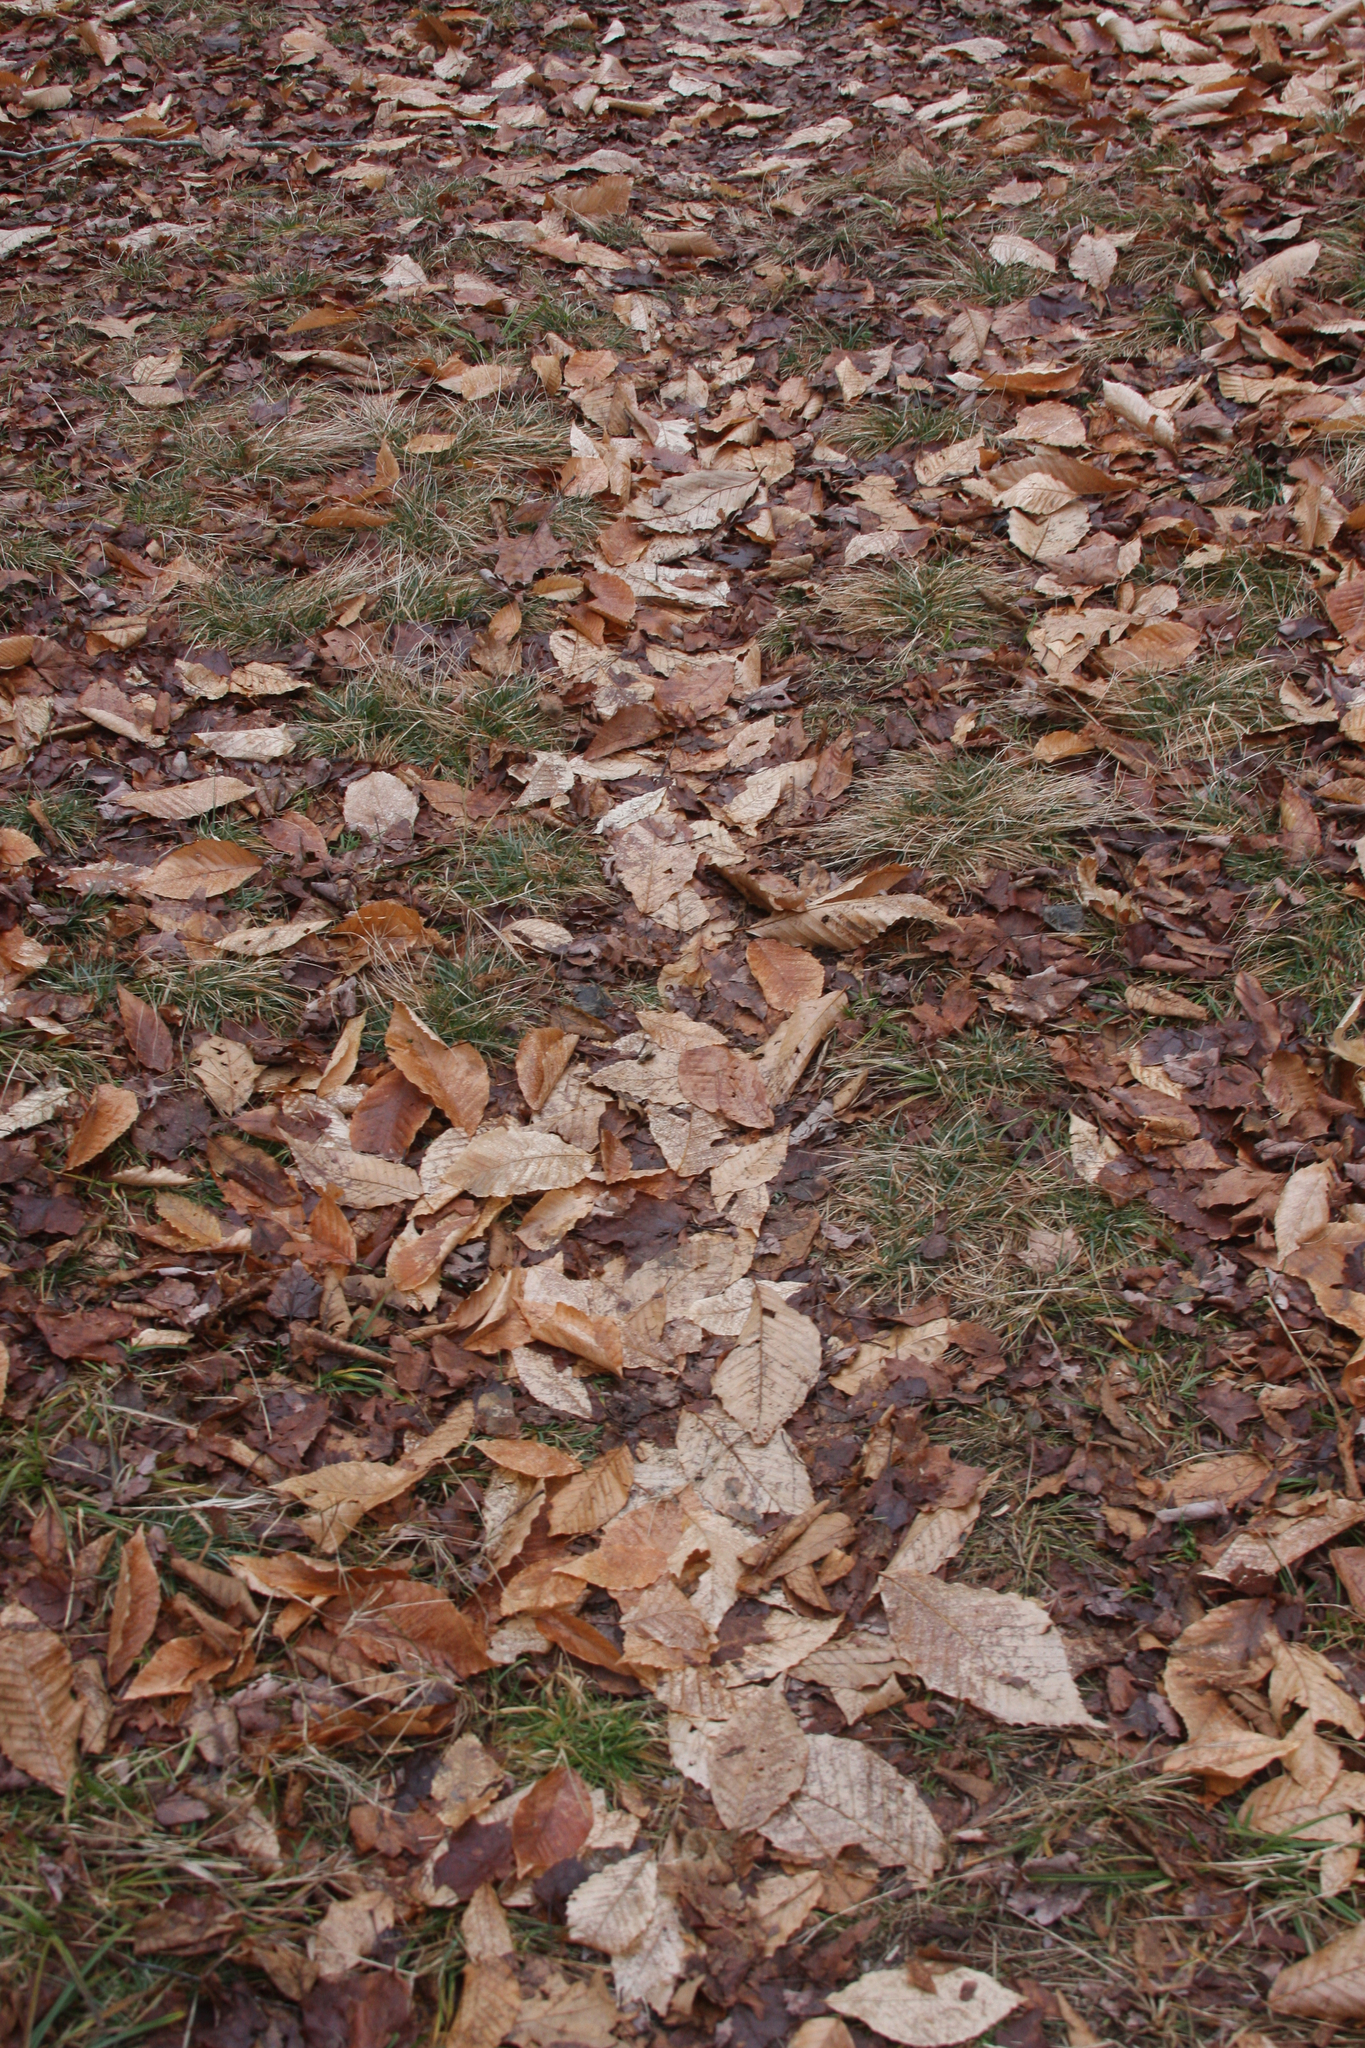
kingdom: Plantae
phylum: Tracheophyta
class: Magnoliopsida
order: Fagales
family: Fagaceae
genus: Fagus
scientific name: Fagus grandifolia
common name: American beech
